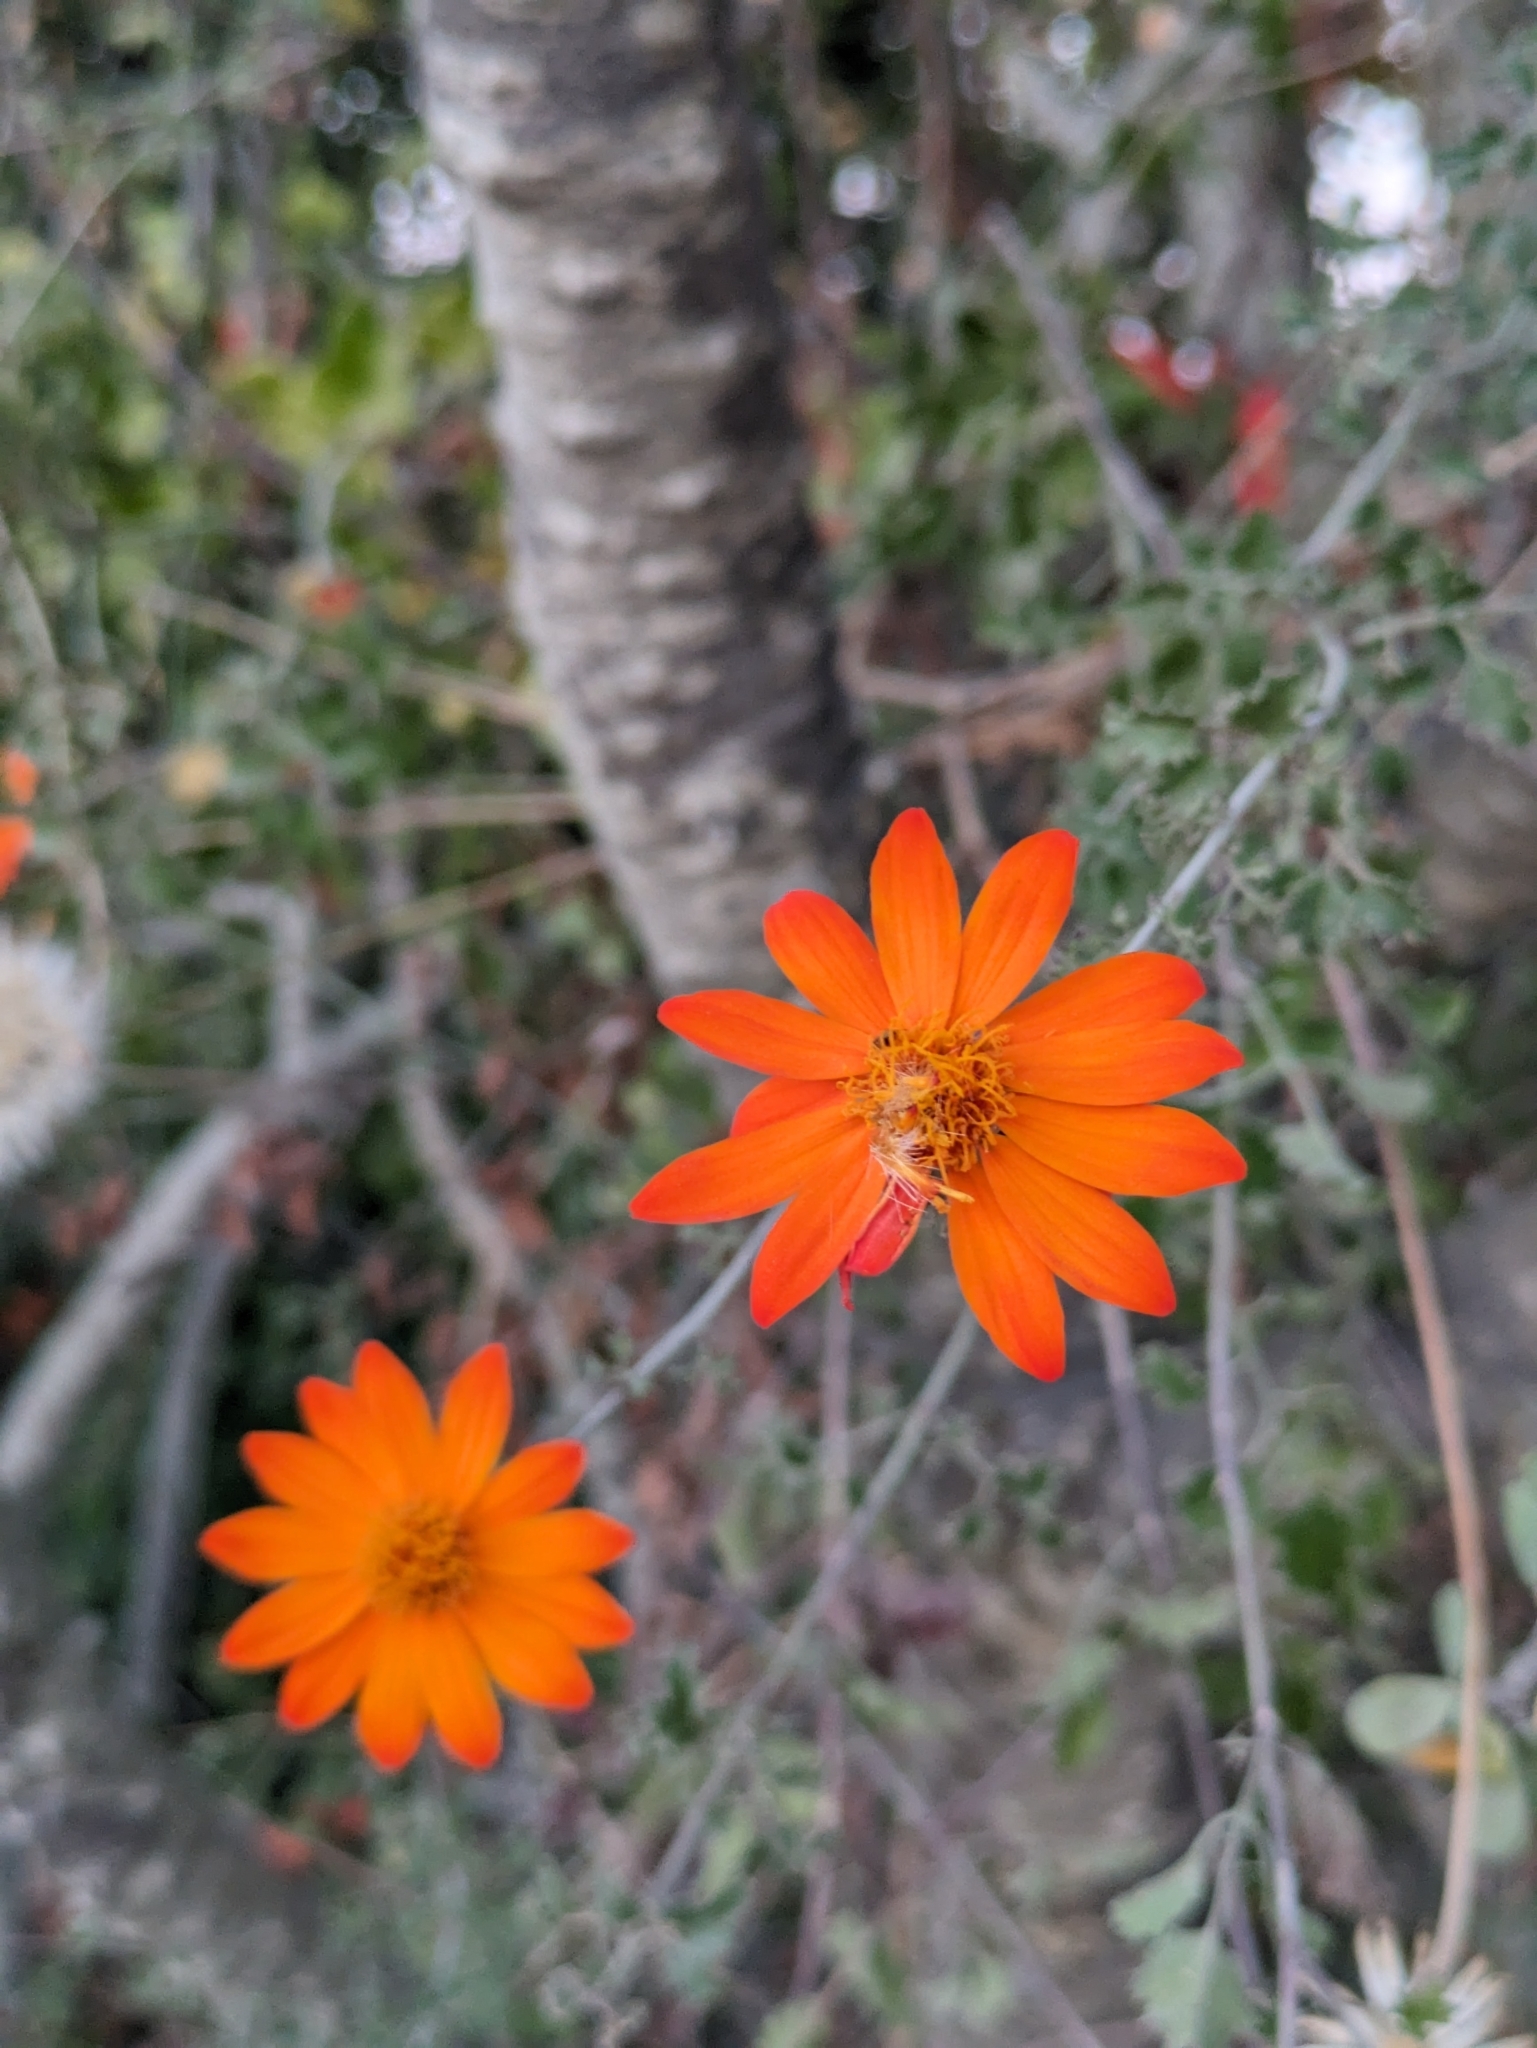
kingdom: Plantae
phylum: Tracheophyta
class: Magnoliopsida
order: Asterales
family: Asteraceae
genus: Adenophyllum
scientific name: Adenophyllum speciosum
